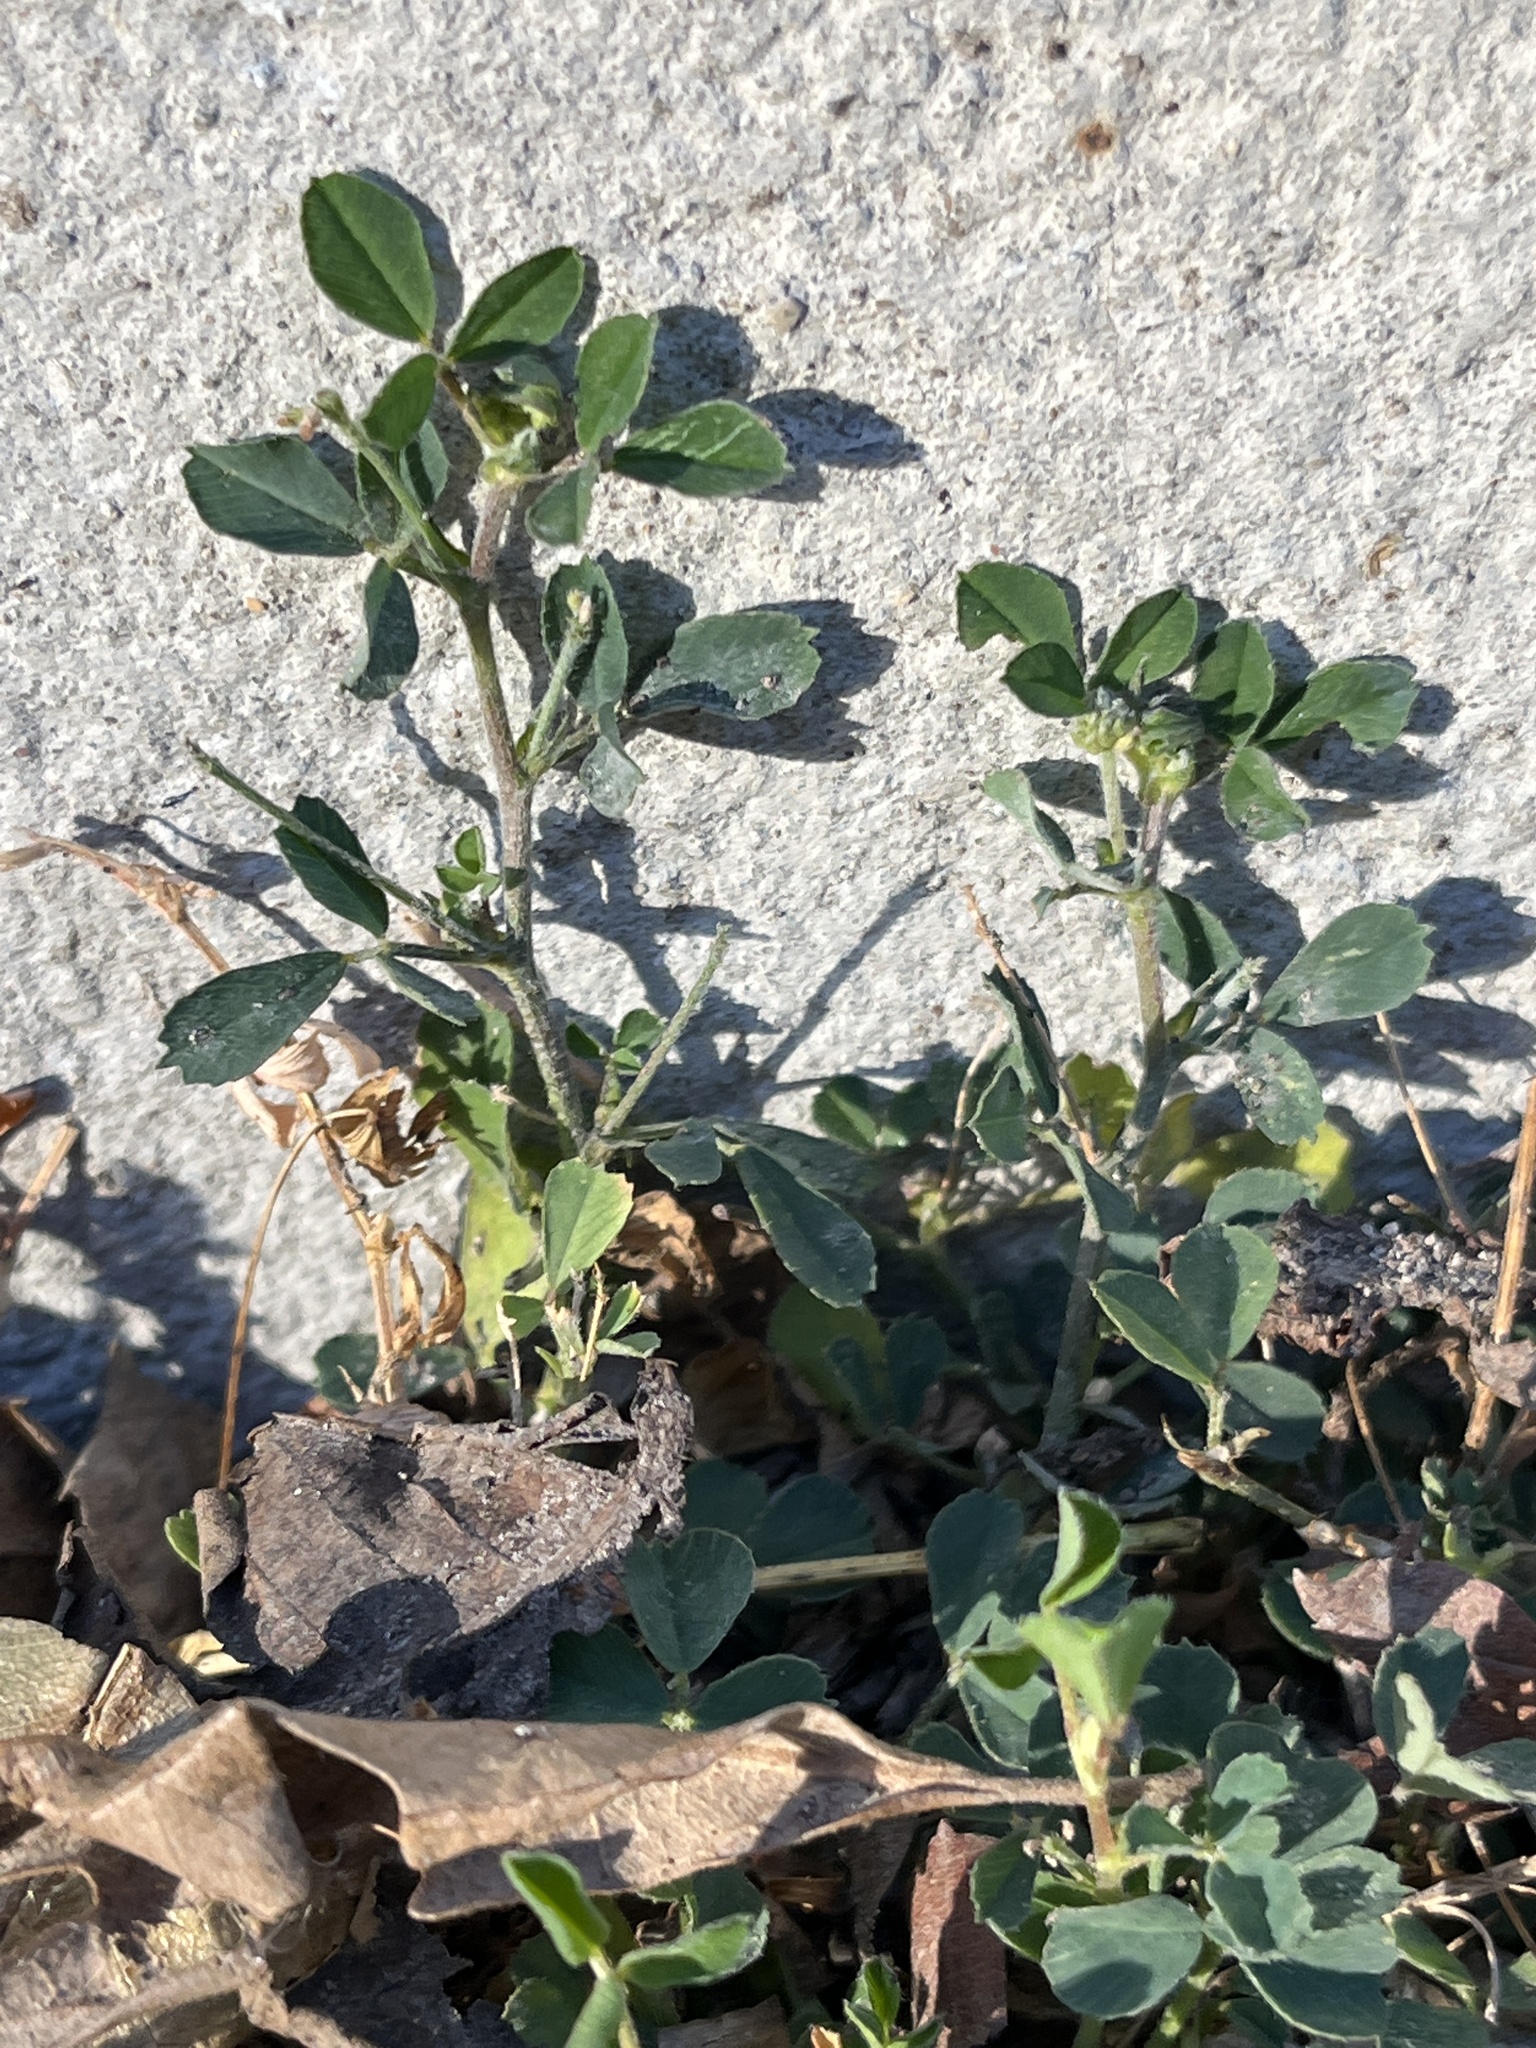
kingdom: Plantae
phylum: Tracheophyta
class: Magnoliopsida
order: Fabales
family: Fabaceae
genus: Medicago
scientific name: Medicago lupulina
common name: Black medick
